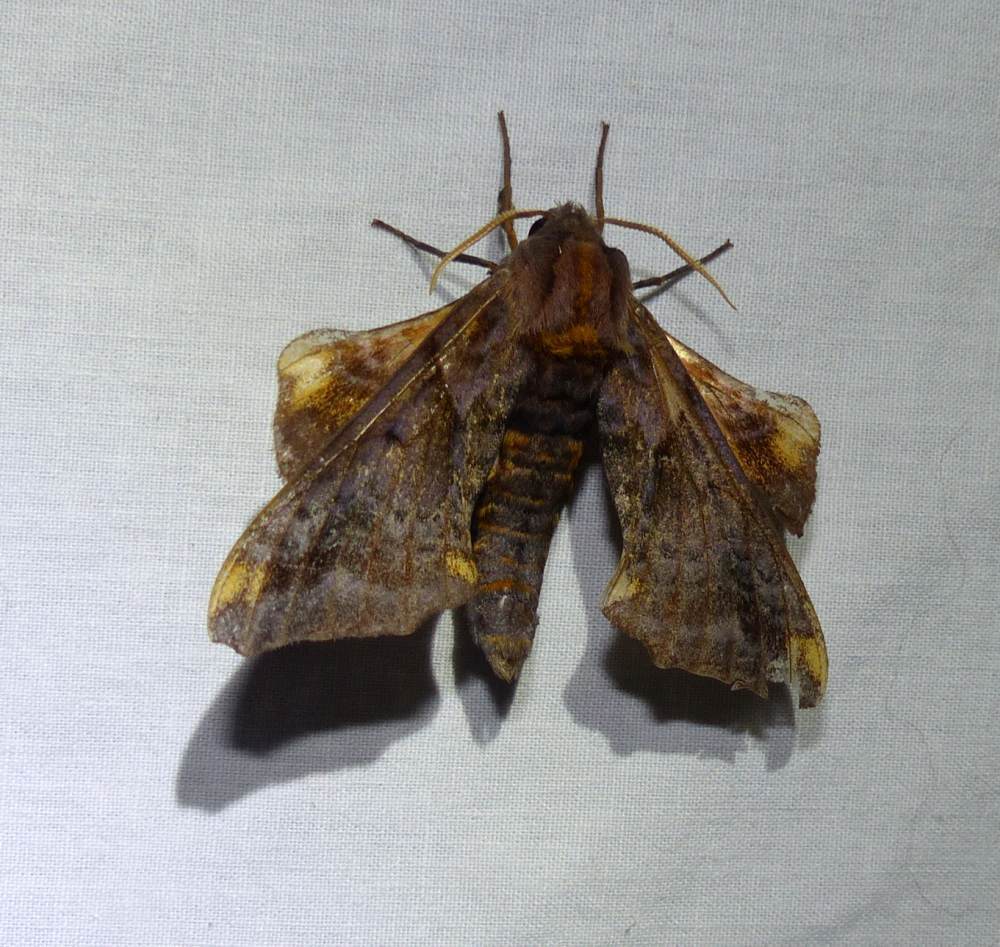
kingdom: Animalia
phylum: Arthropoda
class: Insecta
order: Lepidoptera
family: Sphingidae
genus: Paonias
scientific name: Paonias myops
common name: Small-eyed sphinx
